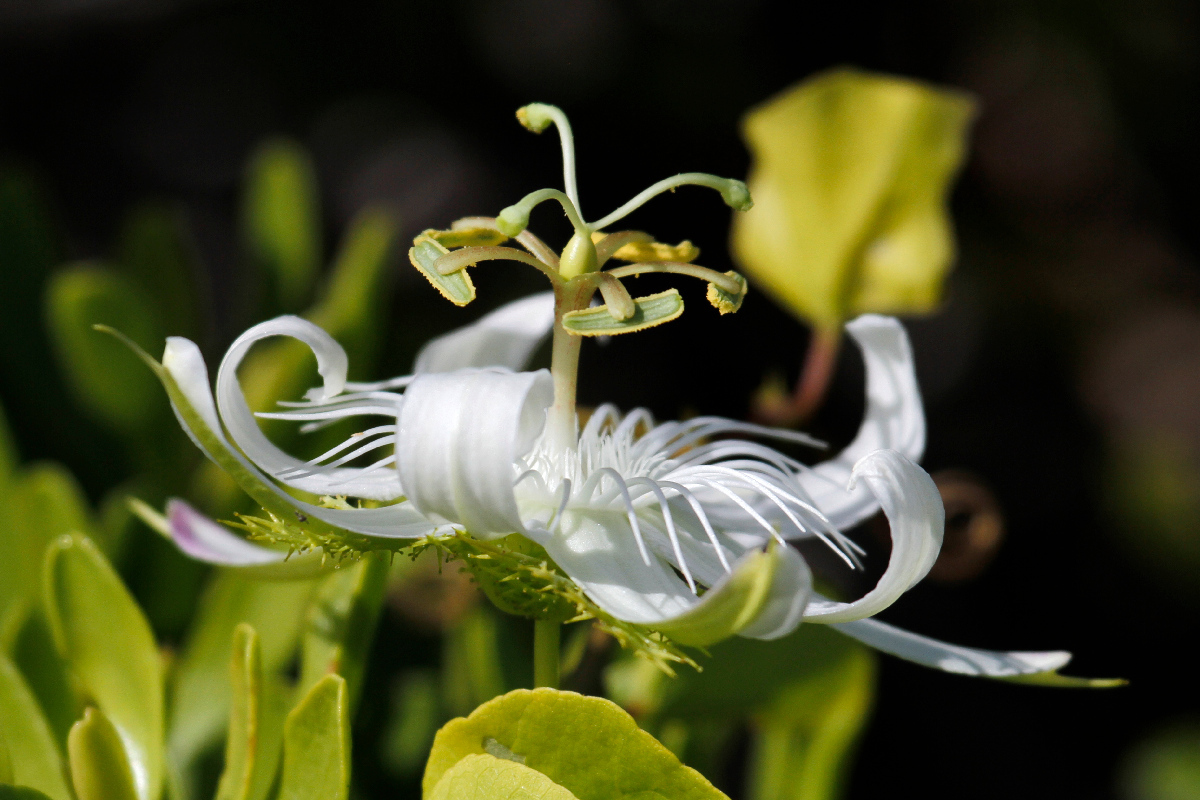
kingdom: Plantae
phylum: Tracheophyta
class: Magnoliopsida
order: Malpighiales
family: Passifloraceae
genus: Passiflora
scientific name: Passiflora pectinata
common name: White passionflower
